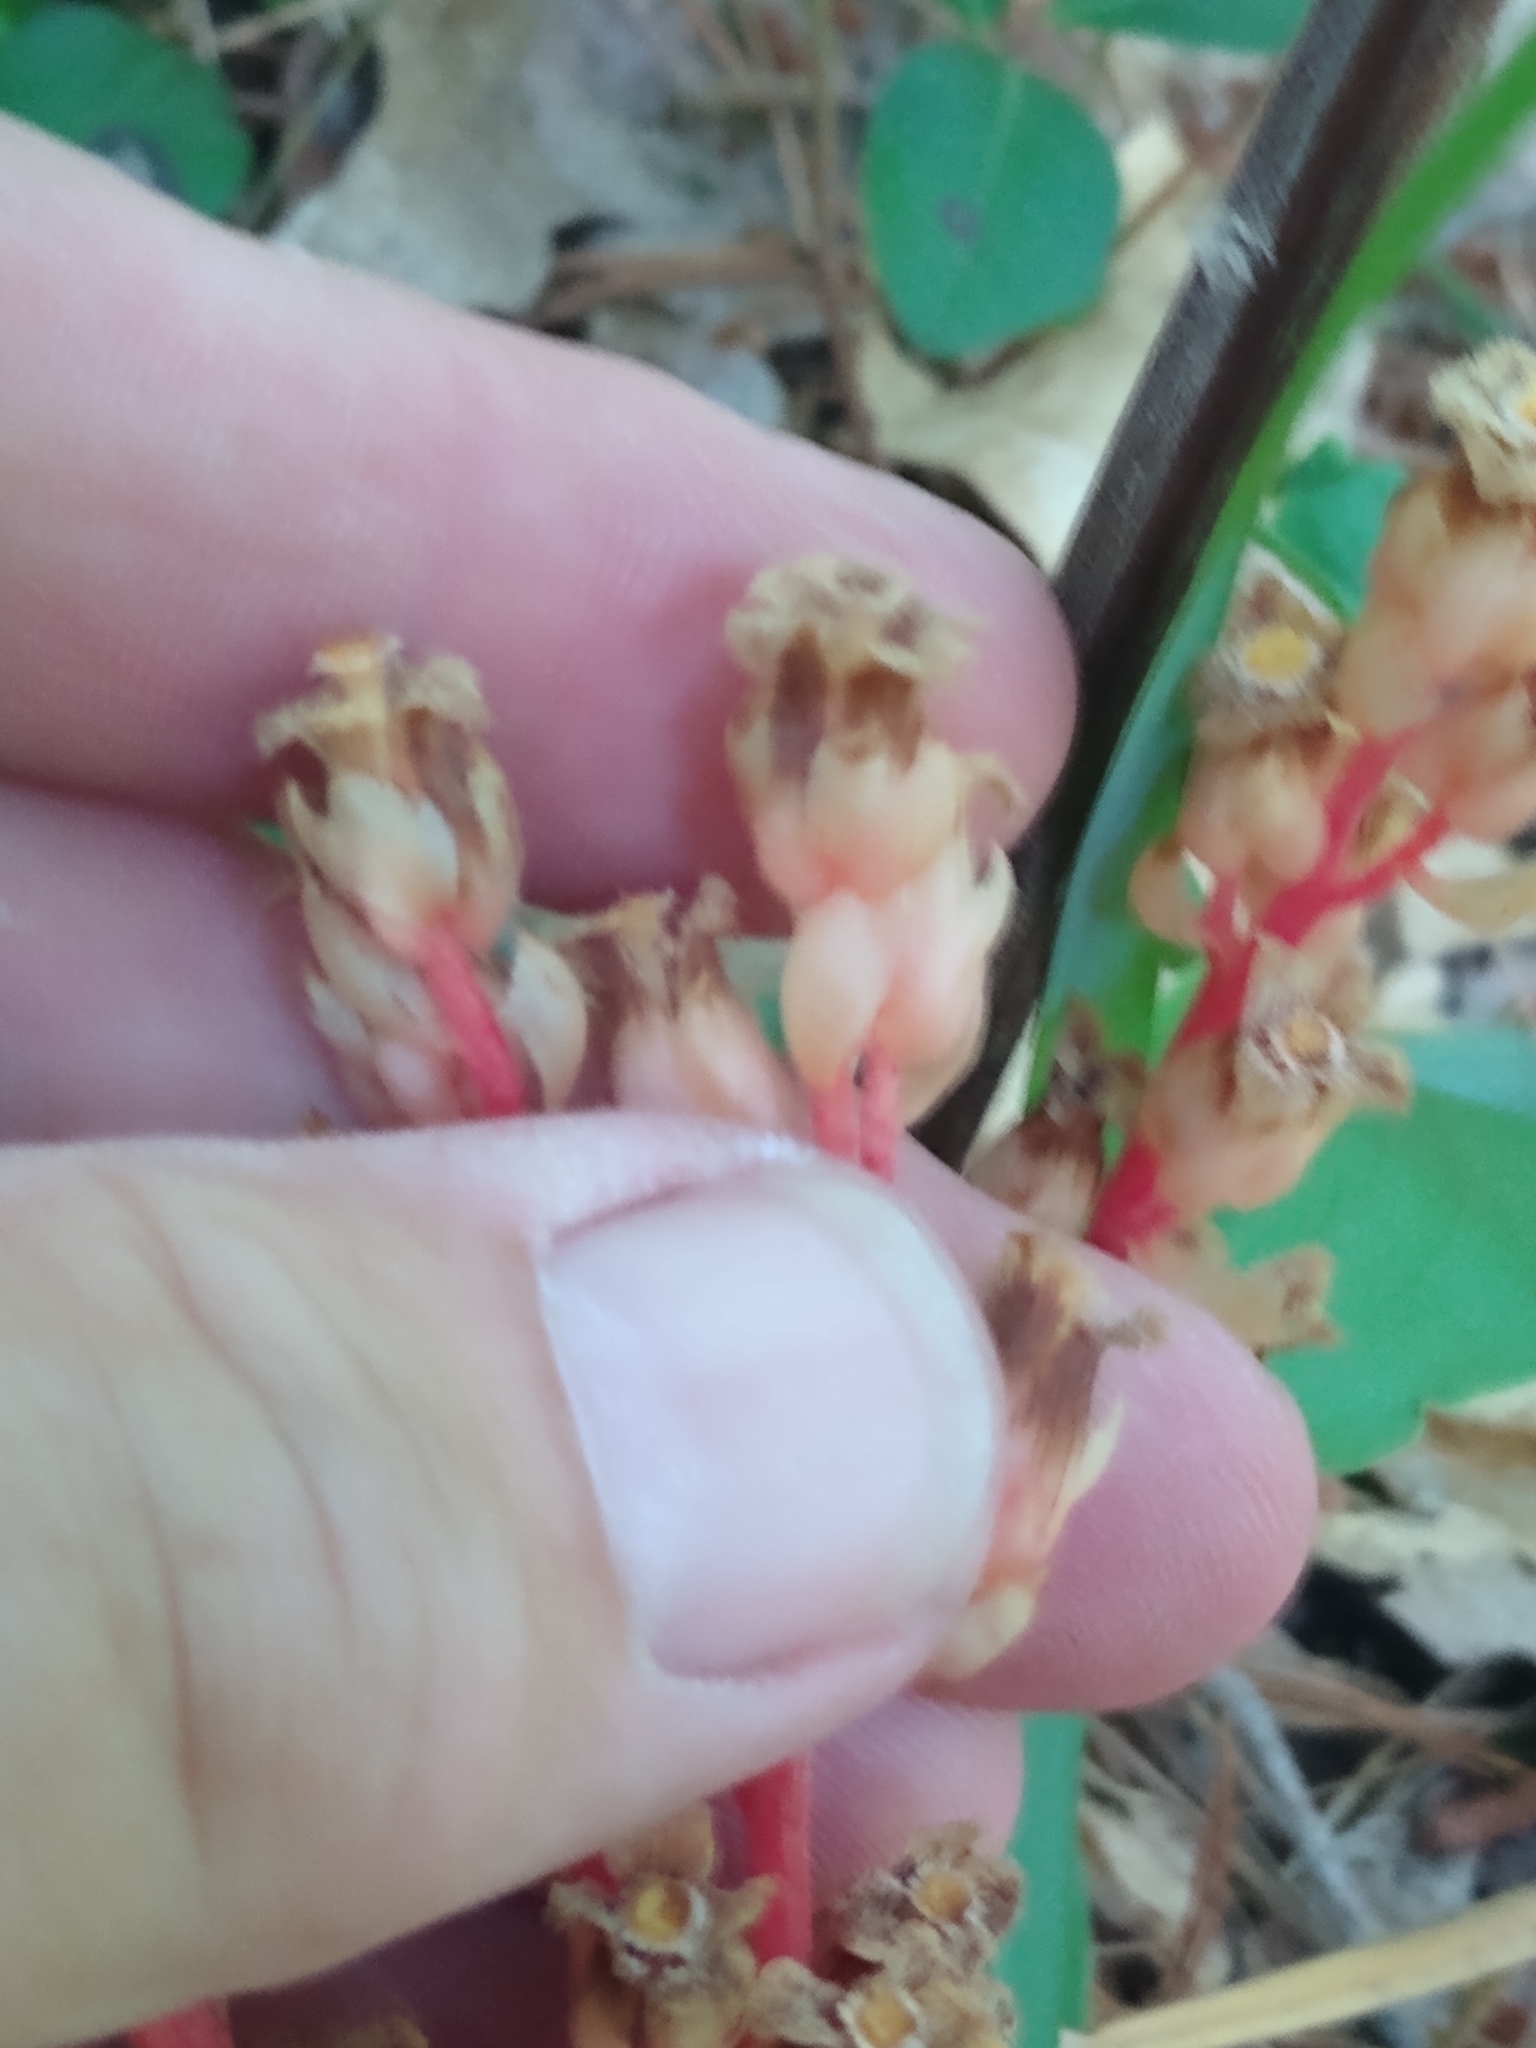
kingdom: Plantae
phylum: Tracheophyta
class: Magnoliopsida
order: Ericales
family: Ericaceae
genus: Hypopitys
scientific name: Hypopitys monotropa
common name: Yellow bird's-nest
